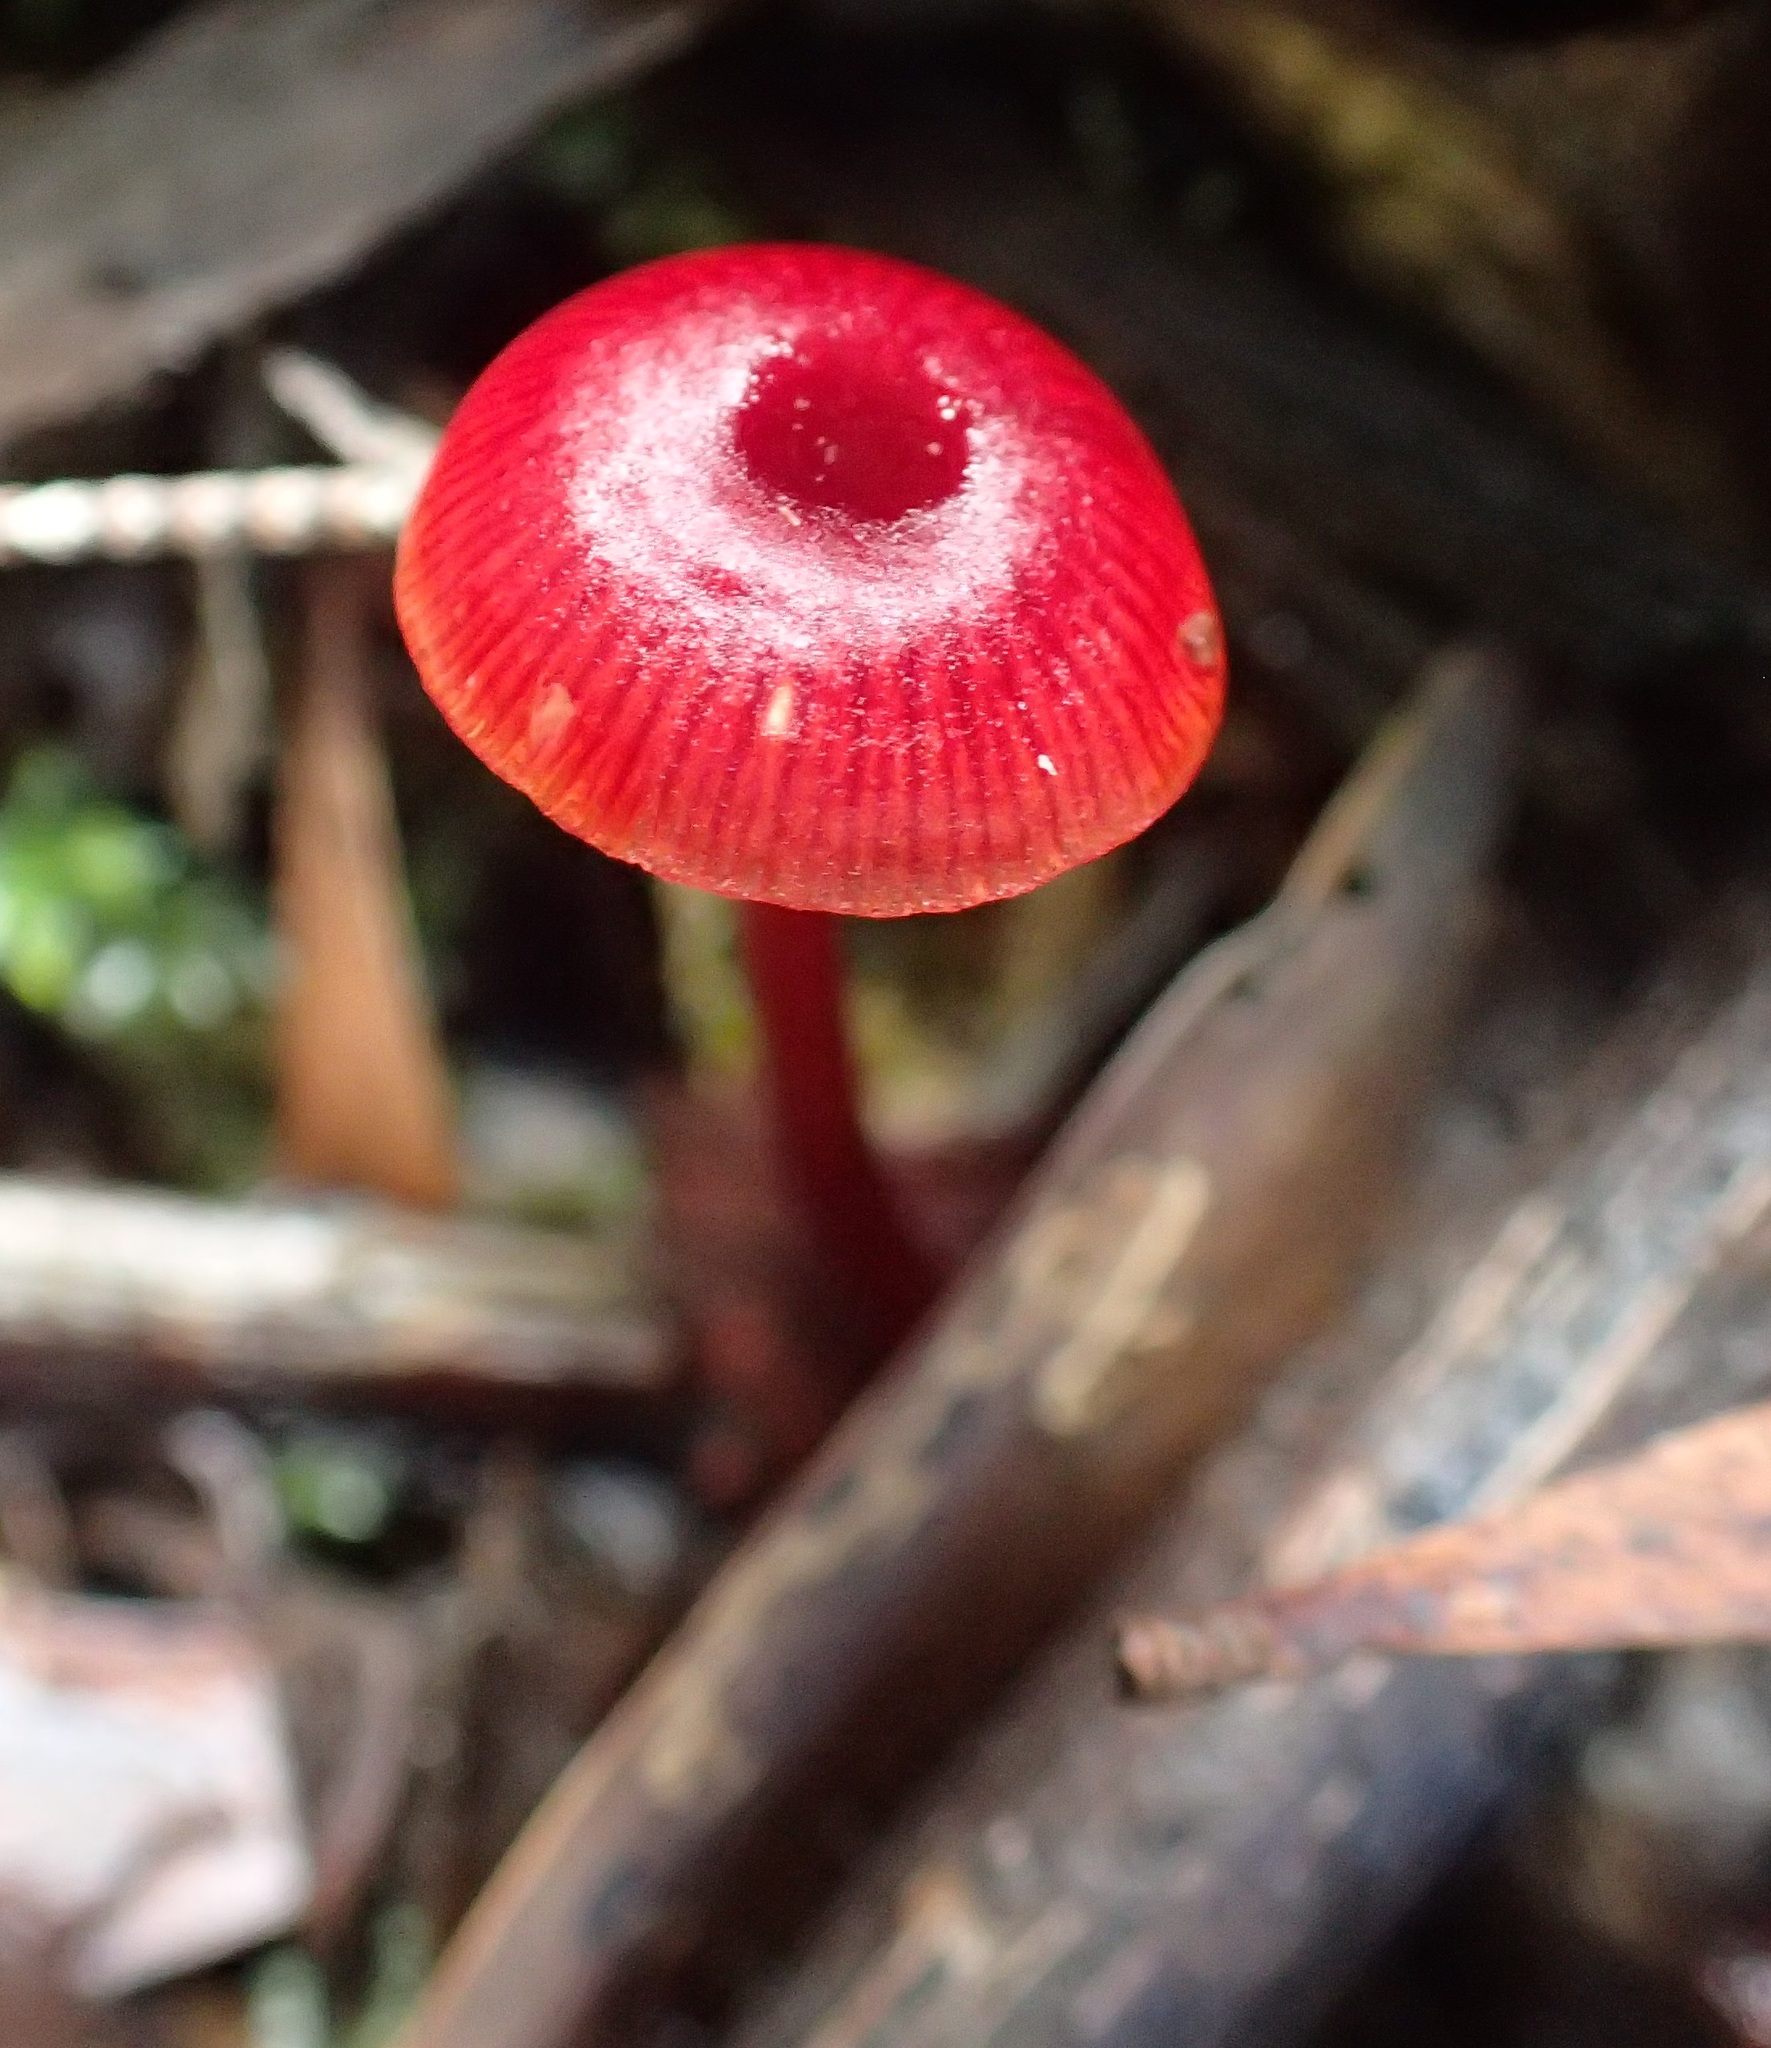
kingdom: Fungi
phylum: Basidiomycota
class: Agaricomycetes
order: Agaricales
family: Mycenaceae
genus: Cruentomycena
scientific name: Cruentomycena viscidocruenta
